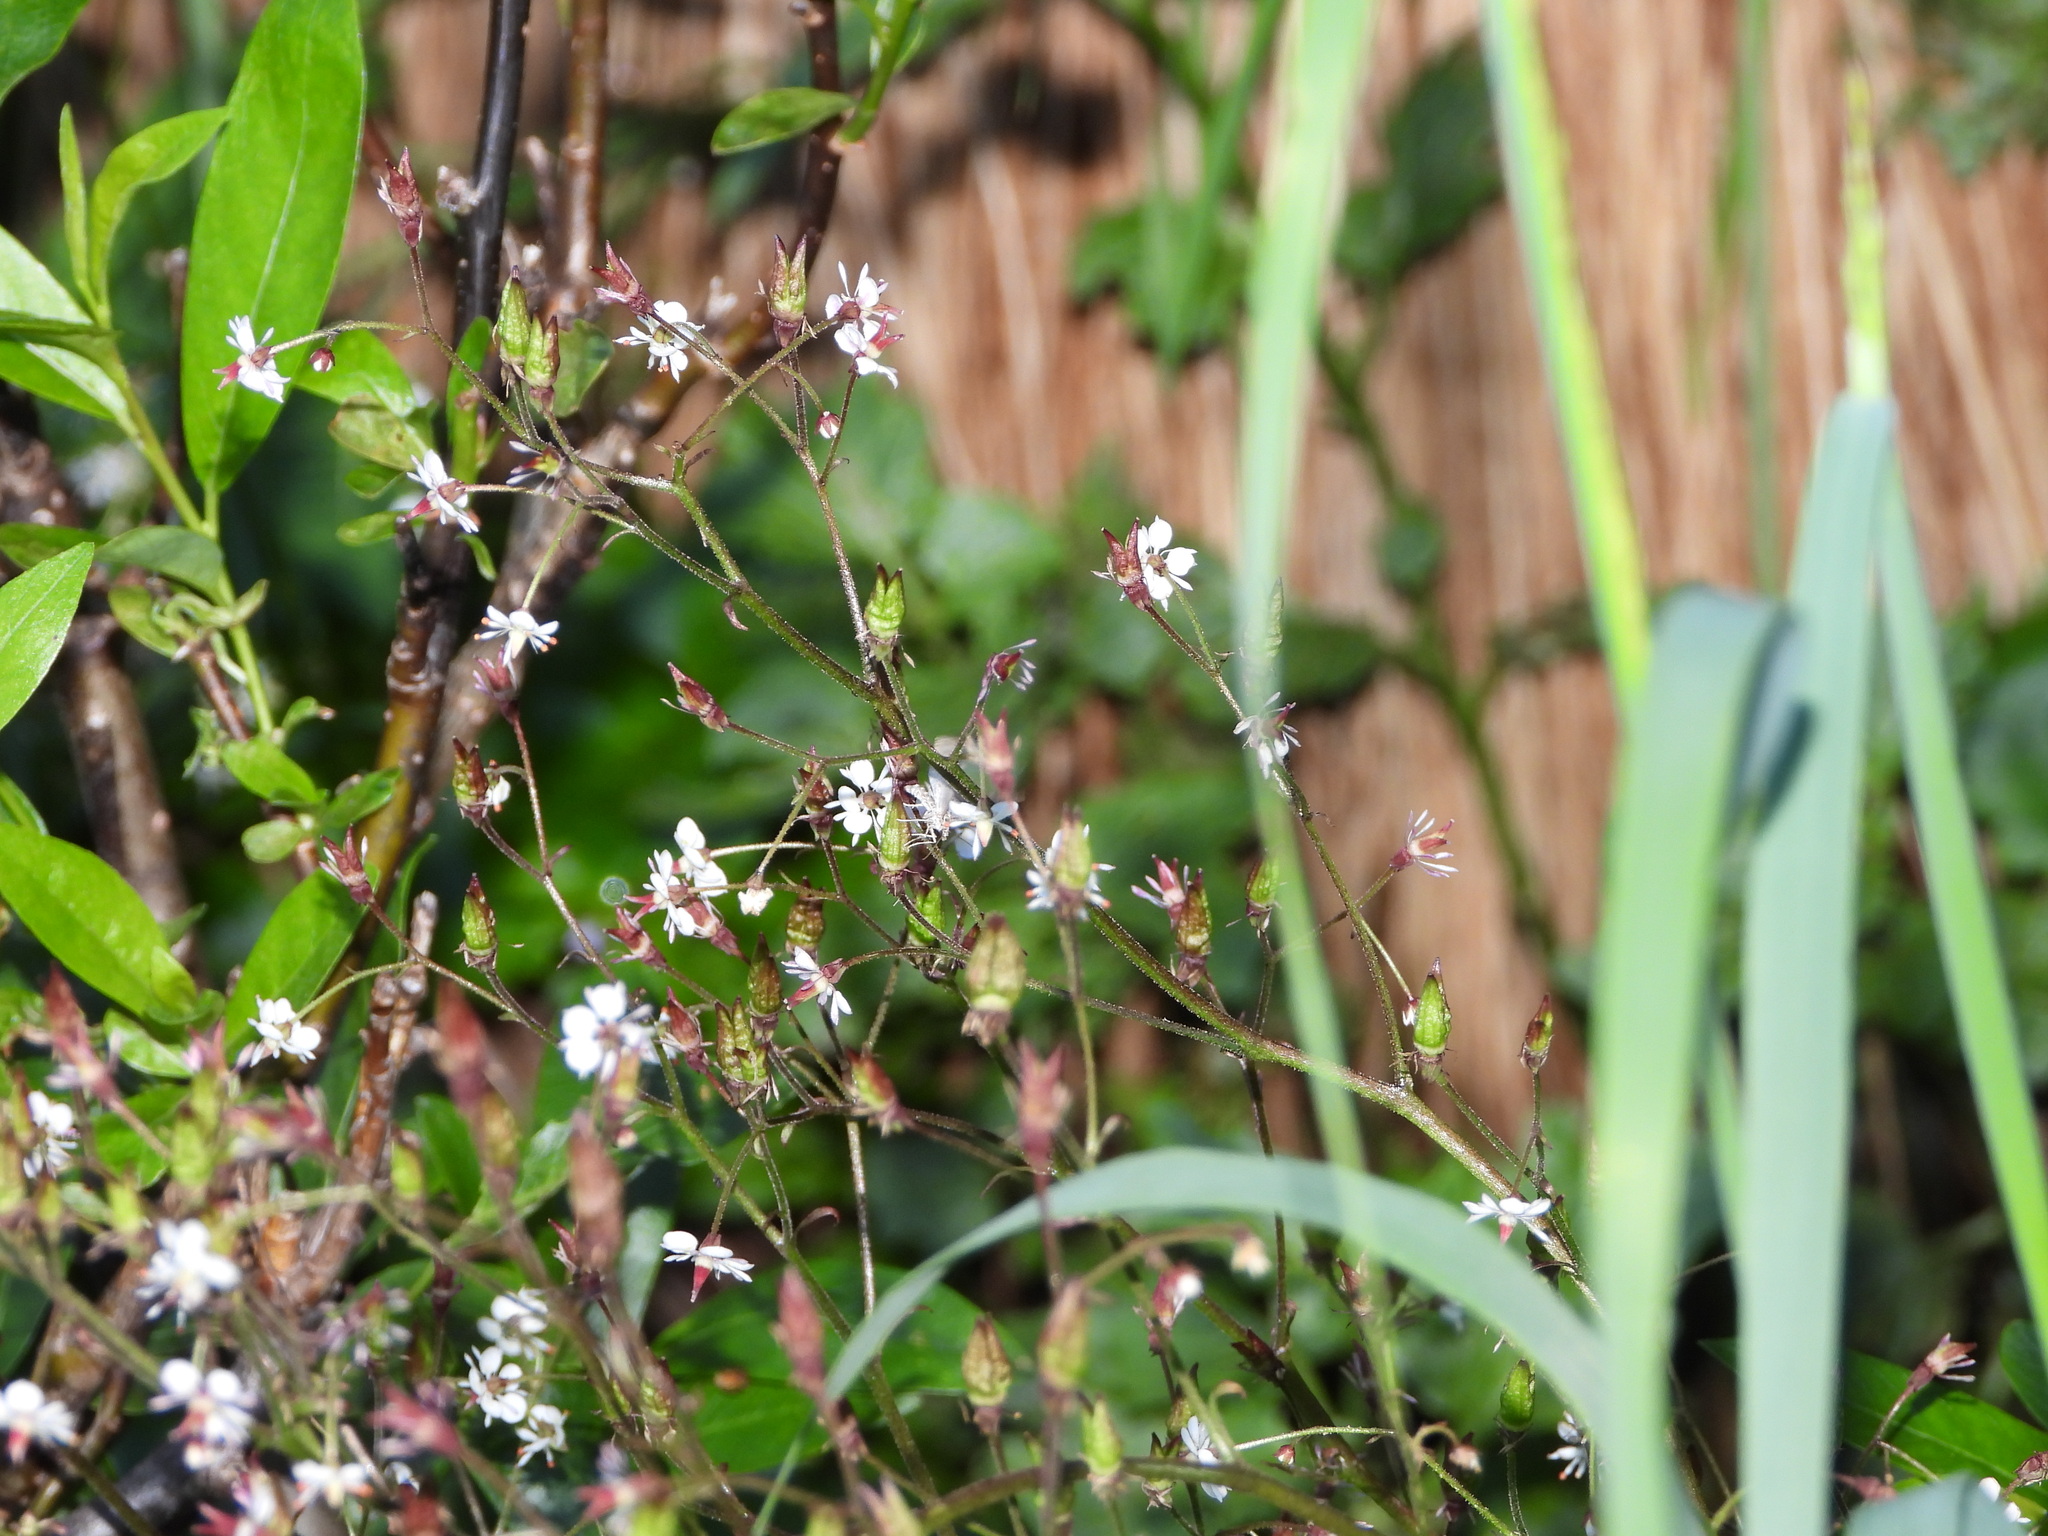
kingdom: Plantae
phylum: Tracheophyta
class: Magnoliopsida
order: Saxifragales
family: Saxifragaceae
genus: Micranthes
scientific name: Micranthes odontoloma
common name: Brook saxifrage
